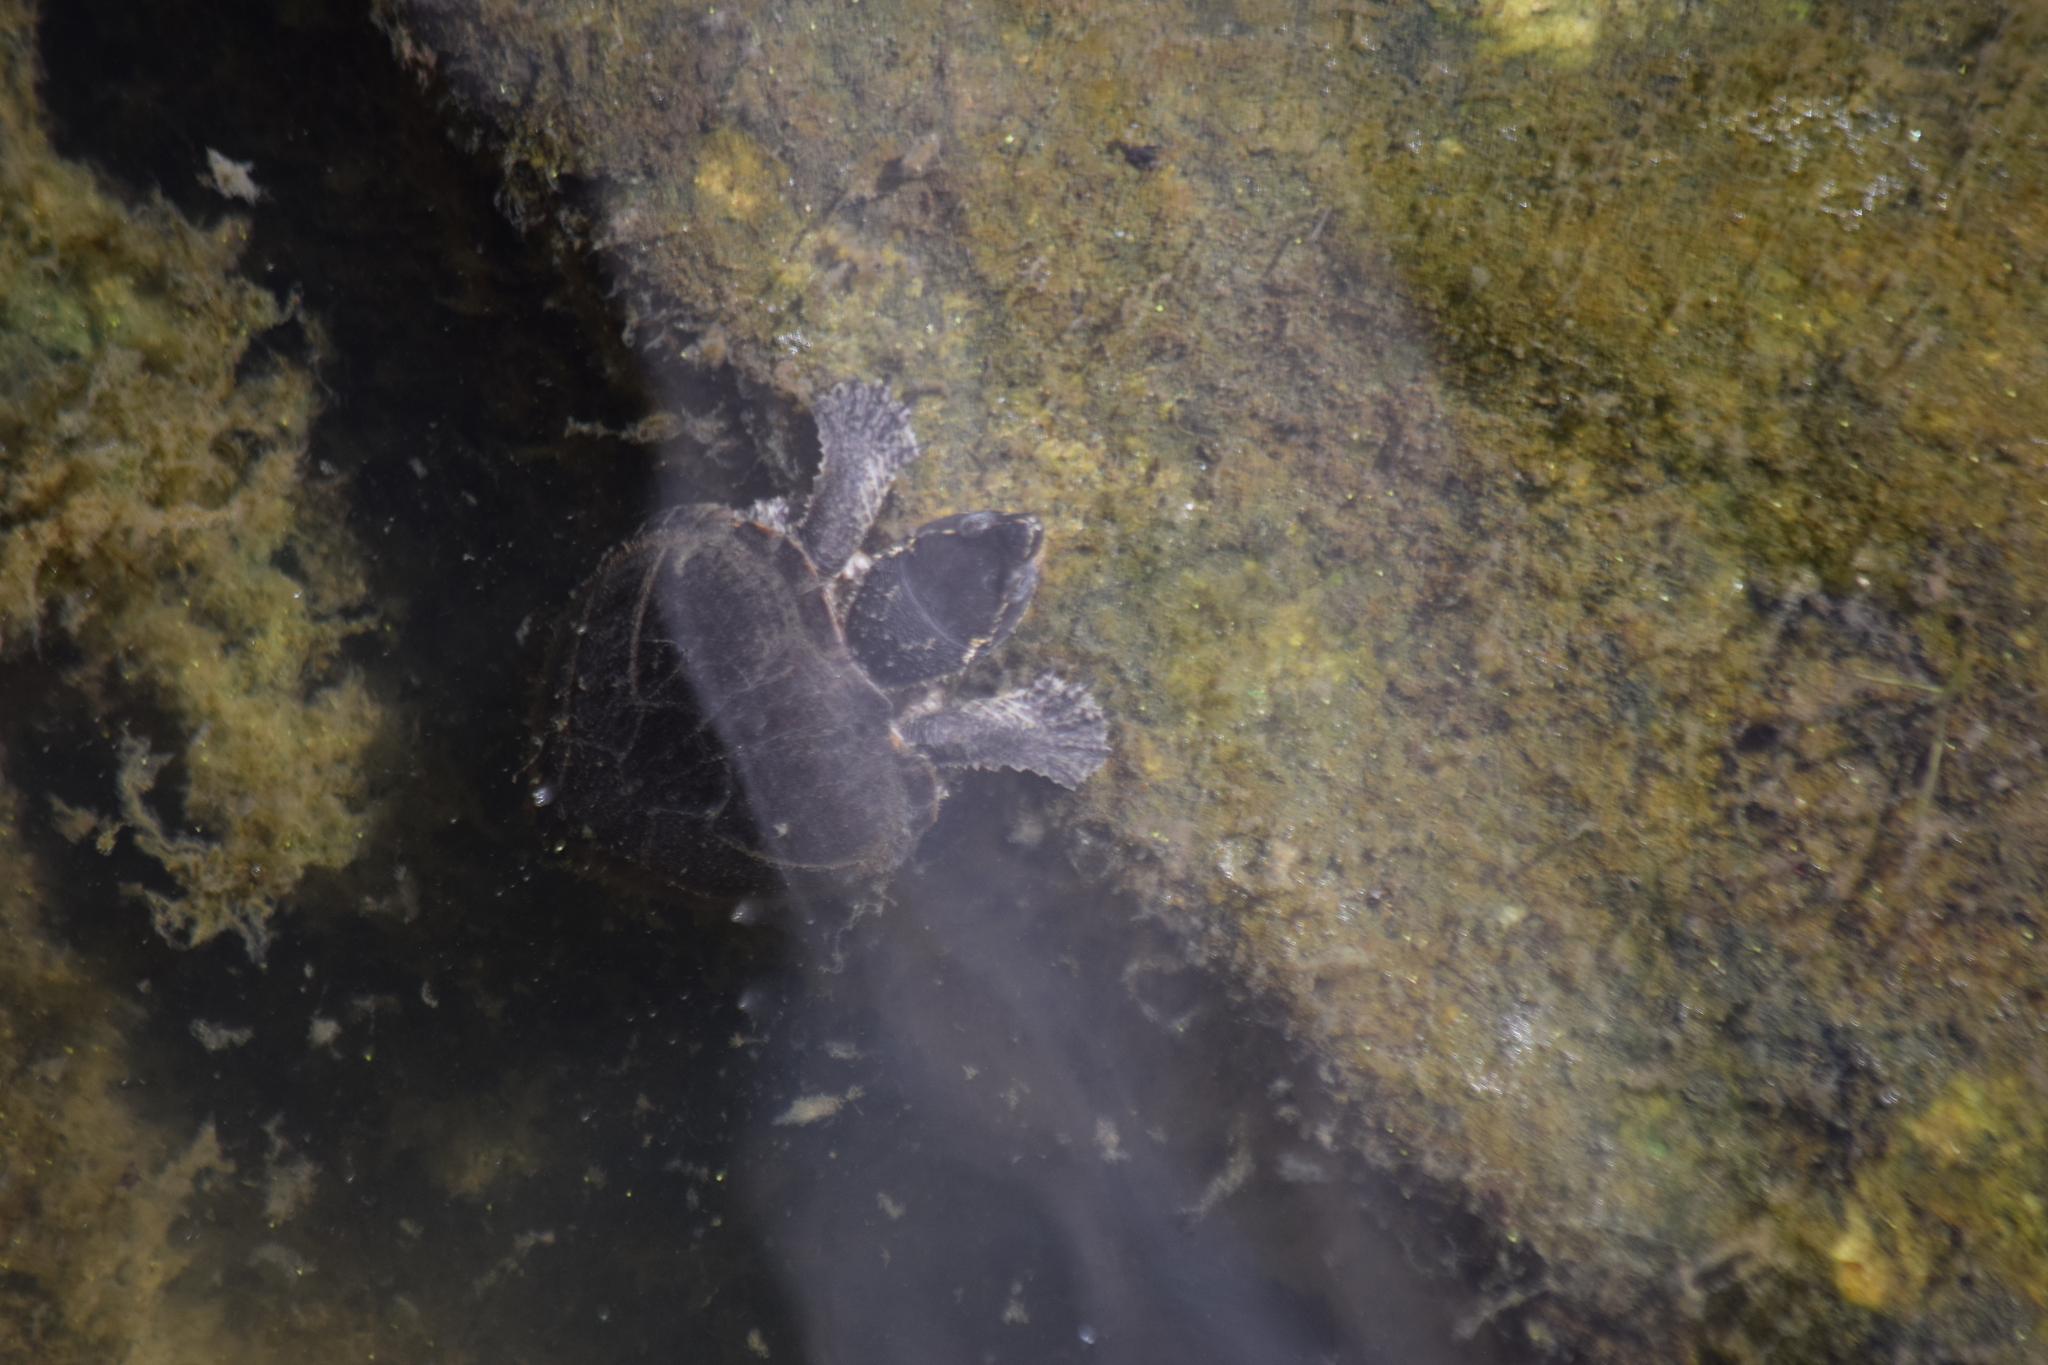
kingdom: Animalia
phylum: Chordata
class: Testudines
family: Kinosternidae
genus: Sternotherus
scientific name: Sternotherus odoratus
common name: Common musk turtle
